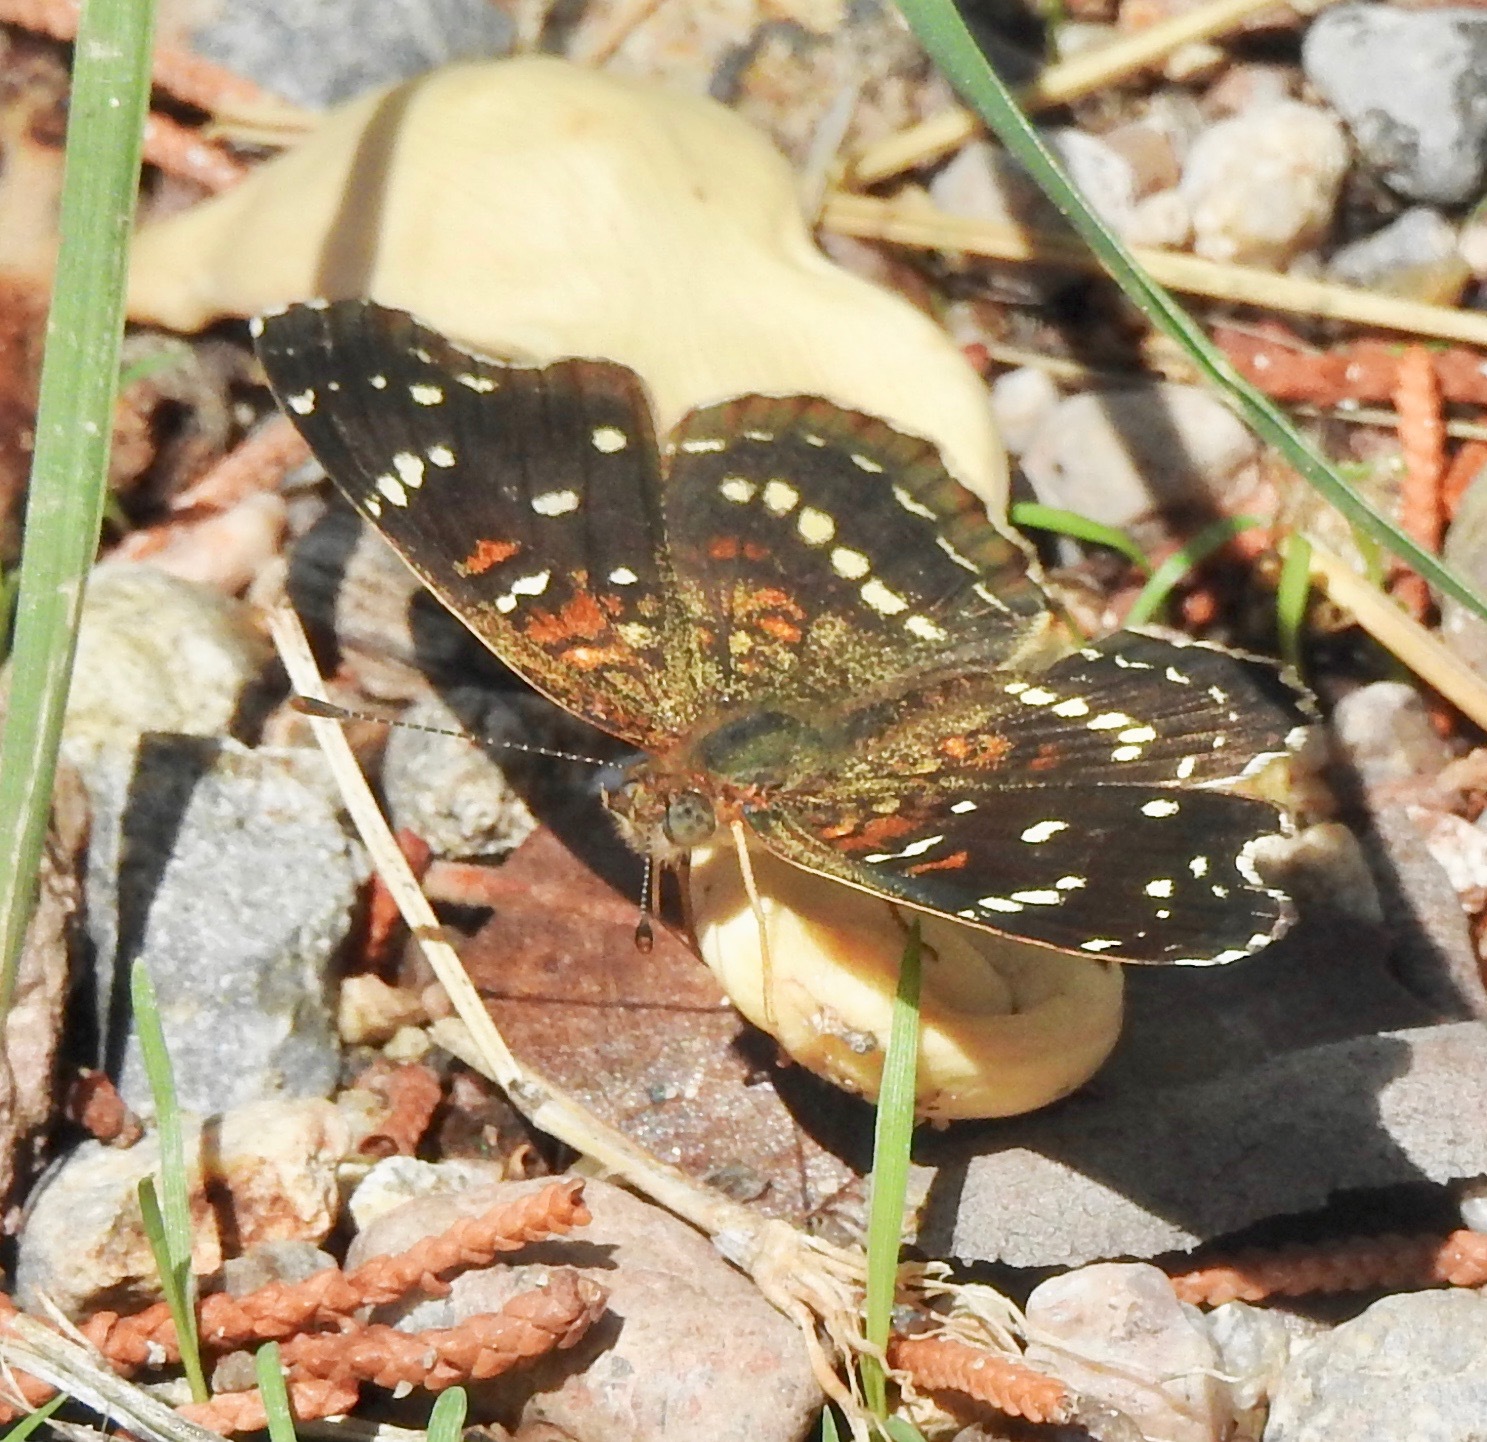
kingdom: Animalia
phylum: Arthropoda
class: Insecta
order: Lepidoptera
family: Nymphalidae
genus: Anthanassa
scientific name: Anthanassa texana
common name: Texan crescent
